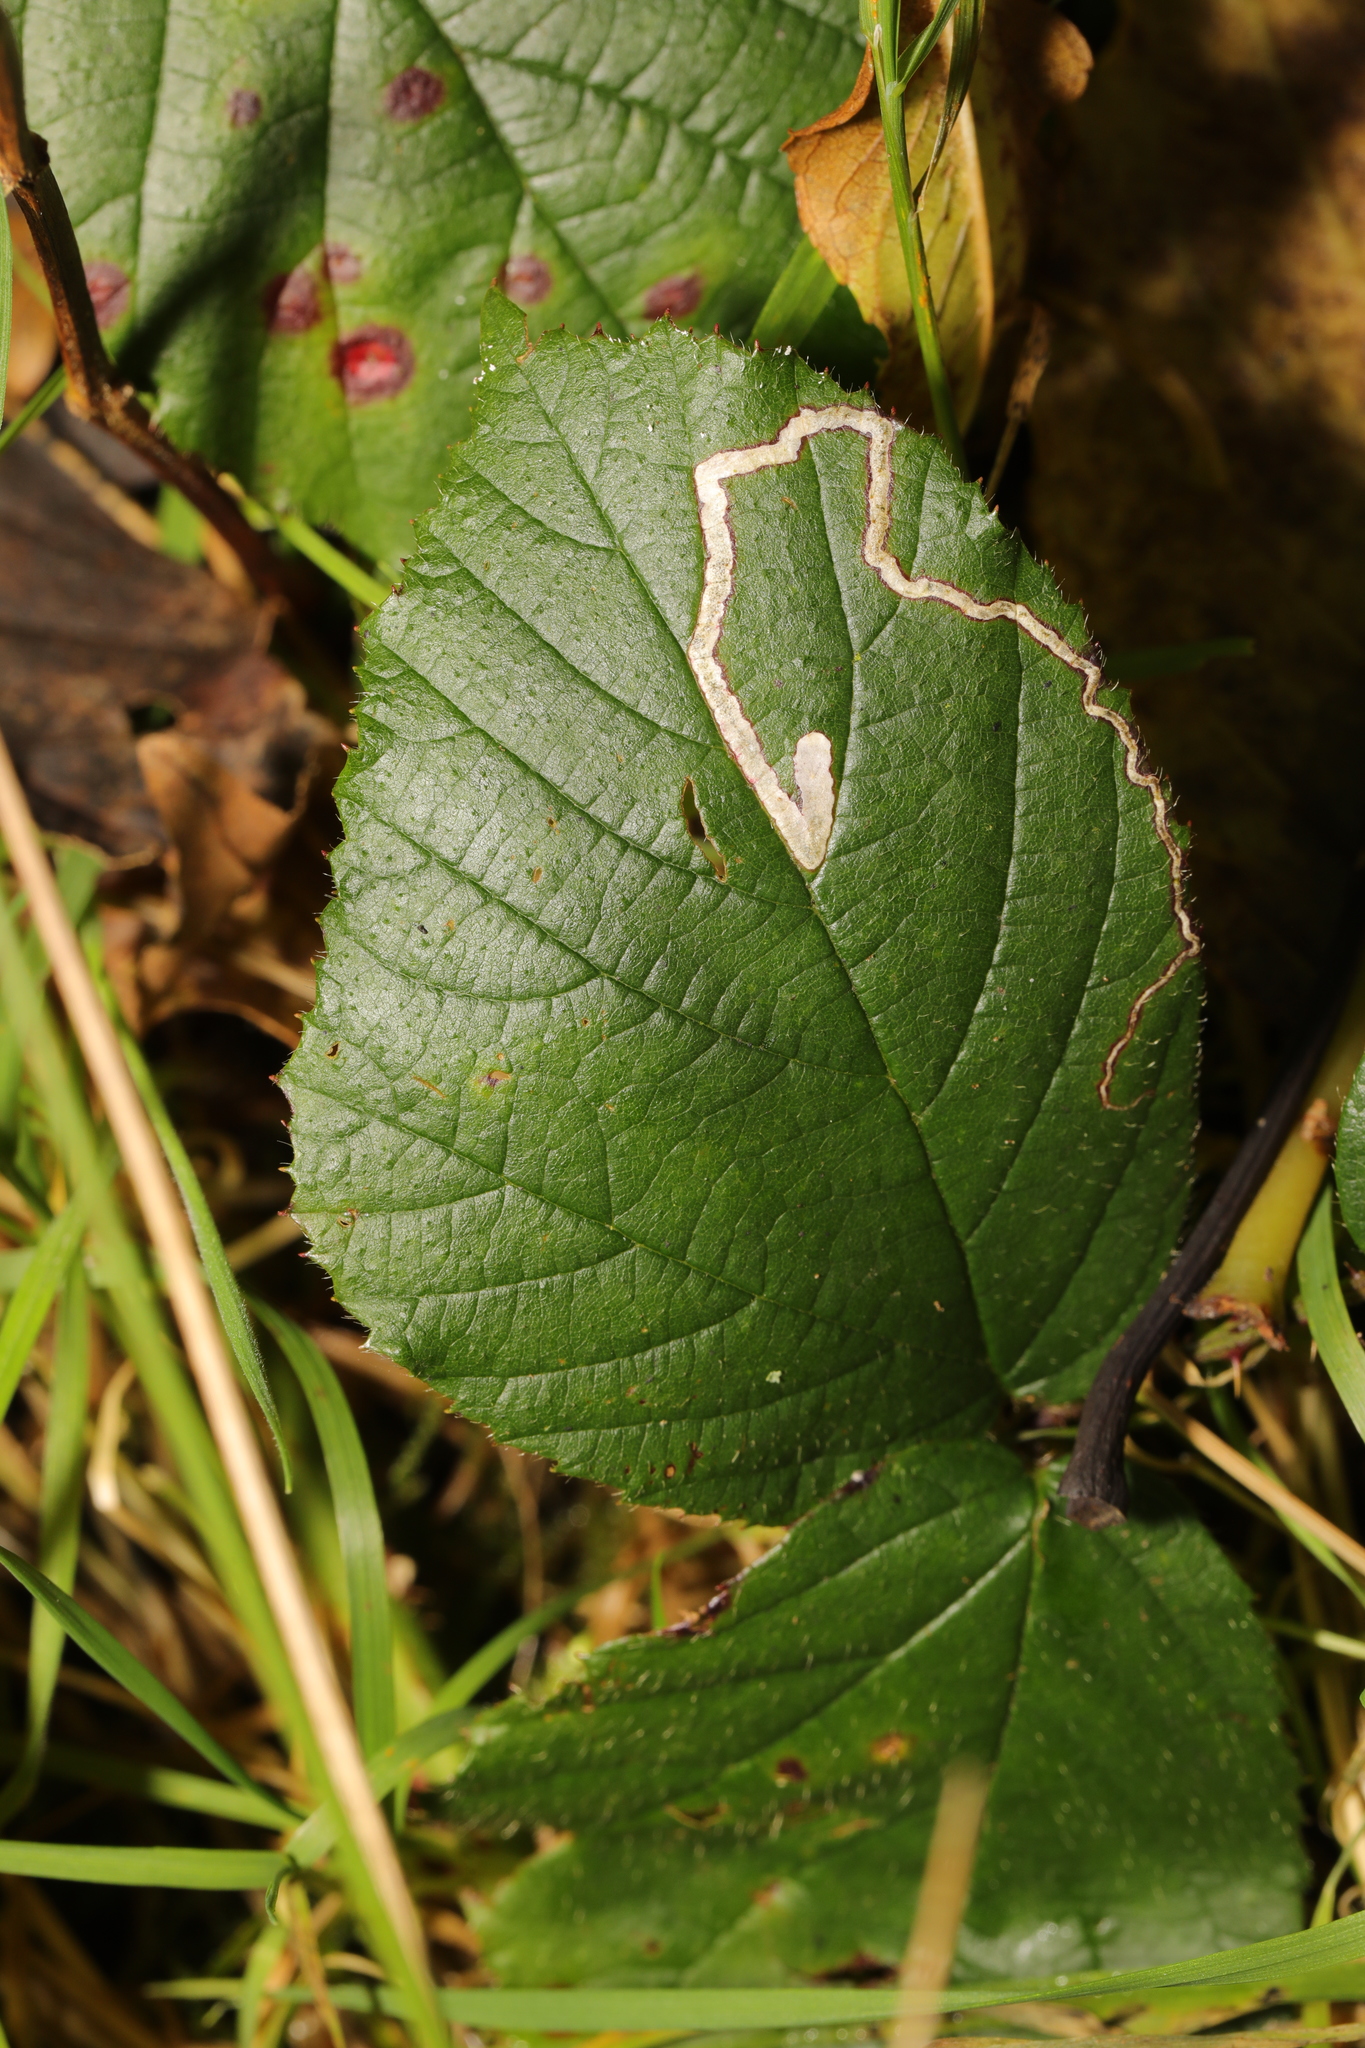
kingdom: Animalia
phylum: Arthropoda
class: Insecta
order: Lepidoptera
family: Nepticulidae
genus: Stigmella
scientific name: Stigmella aurella
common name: Golden pigmy
